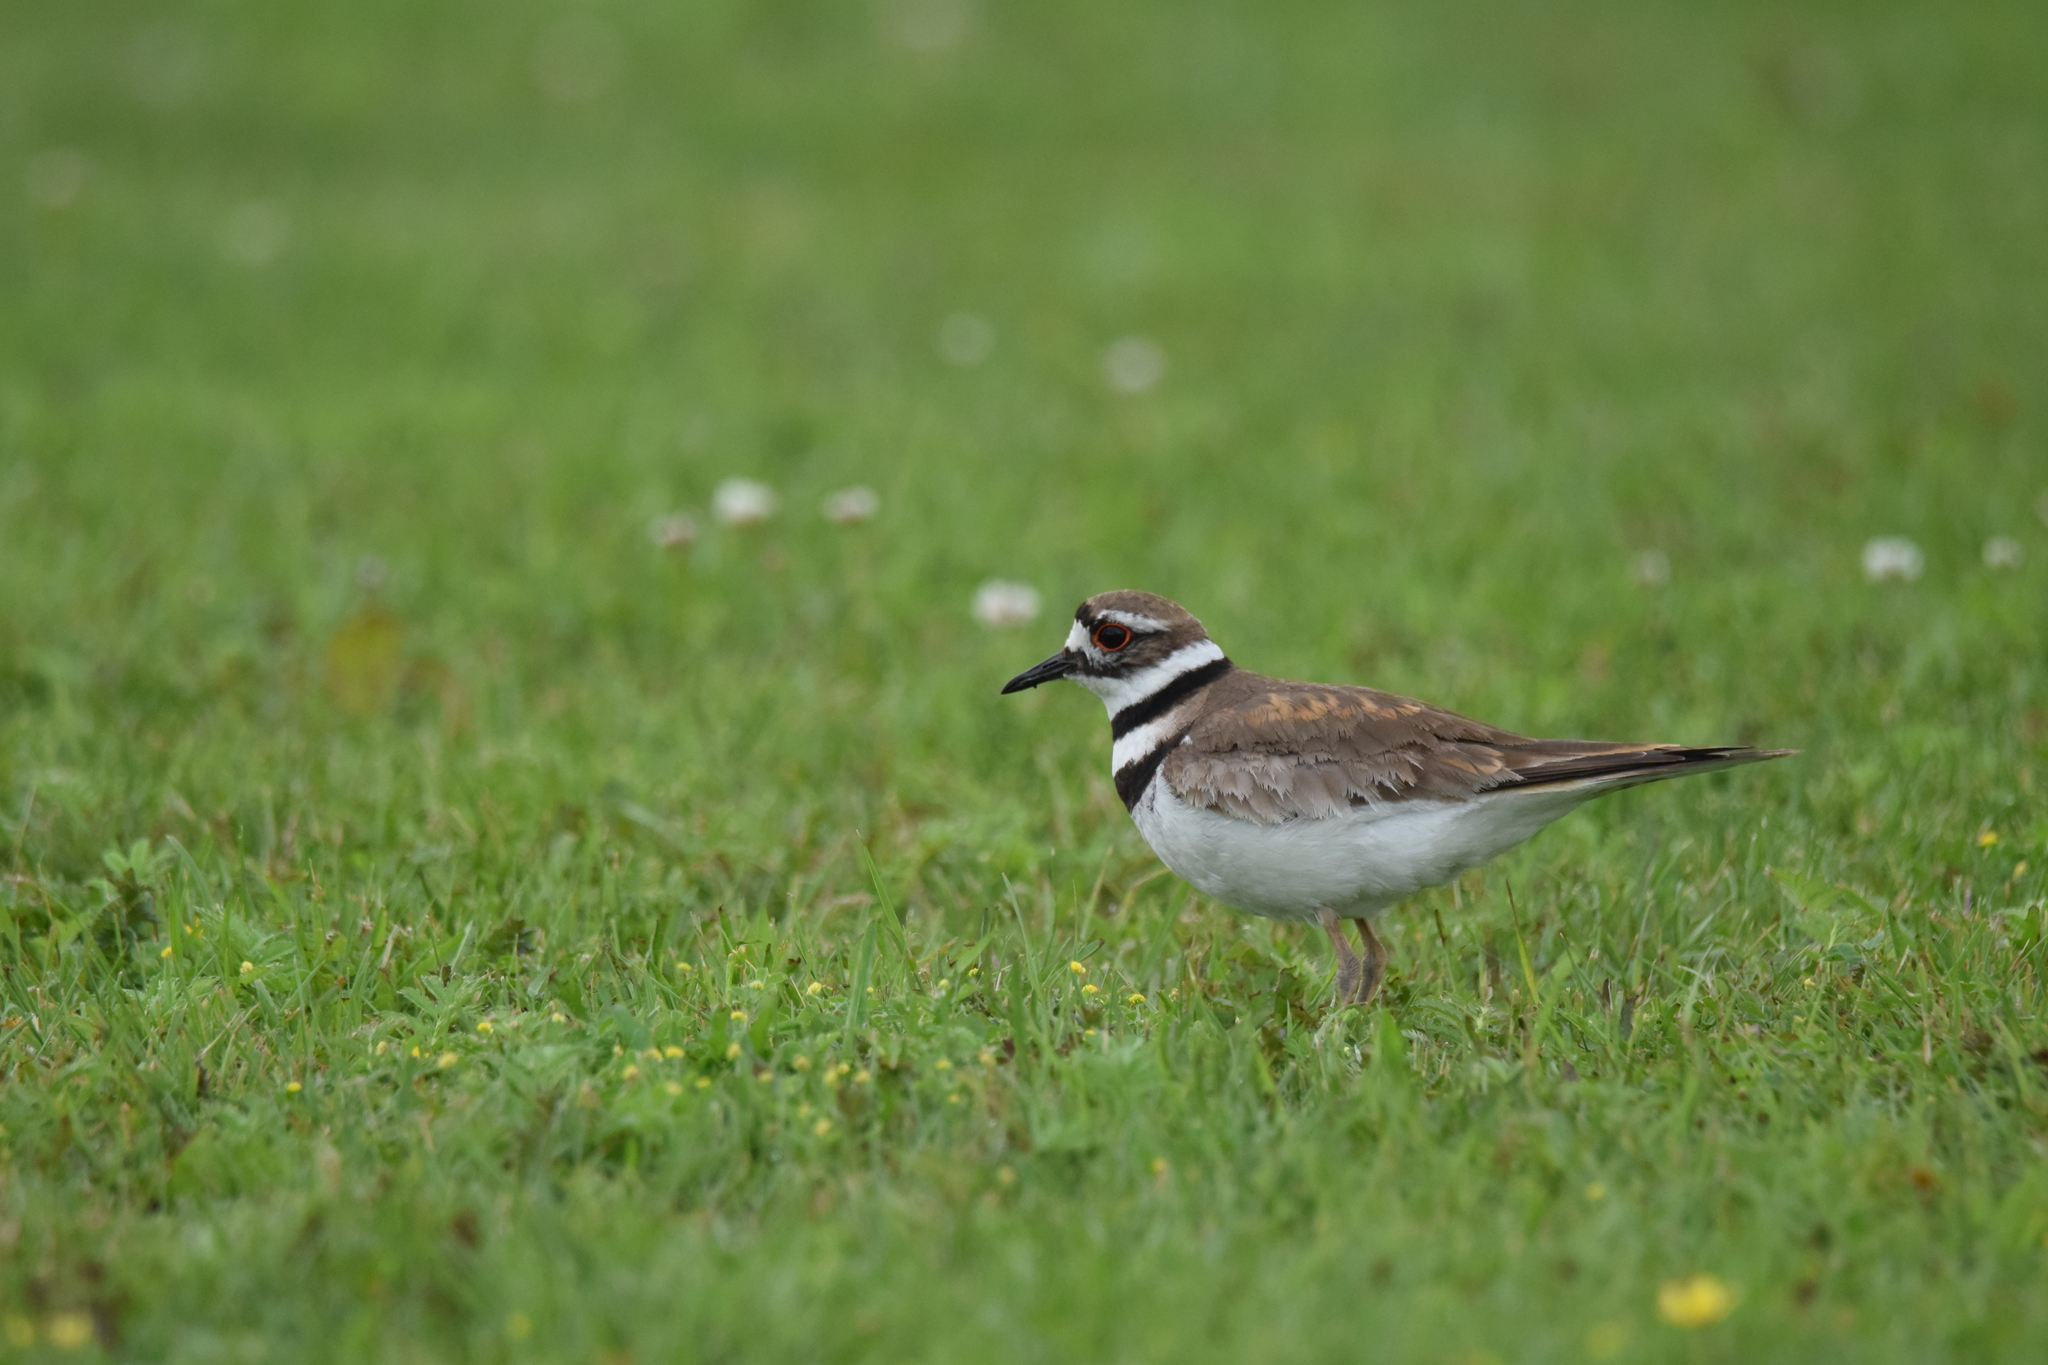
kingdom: Animalia
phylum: Chordata
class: Aves
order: Charadriiformes
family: Charadriidae
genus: Charadrius
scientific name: Charadrius vociferus
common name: Killdeer
